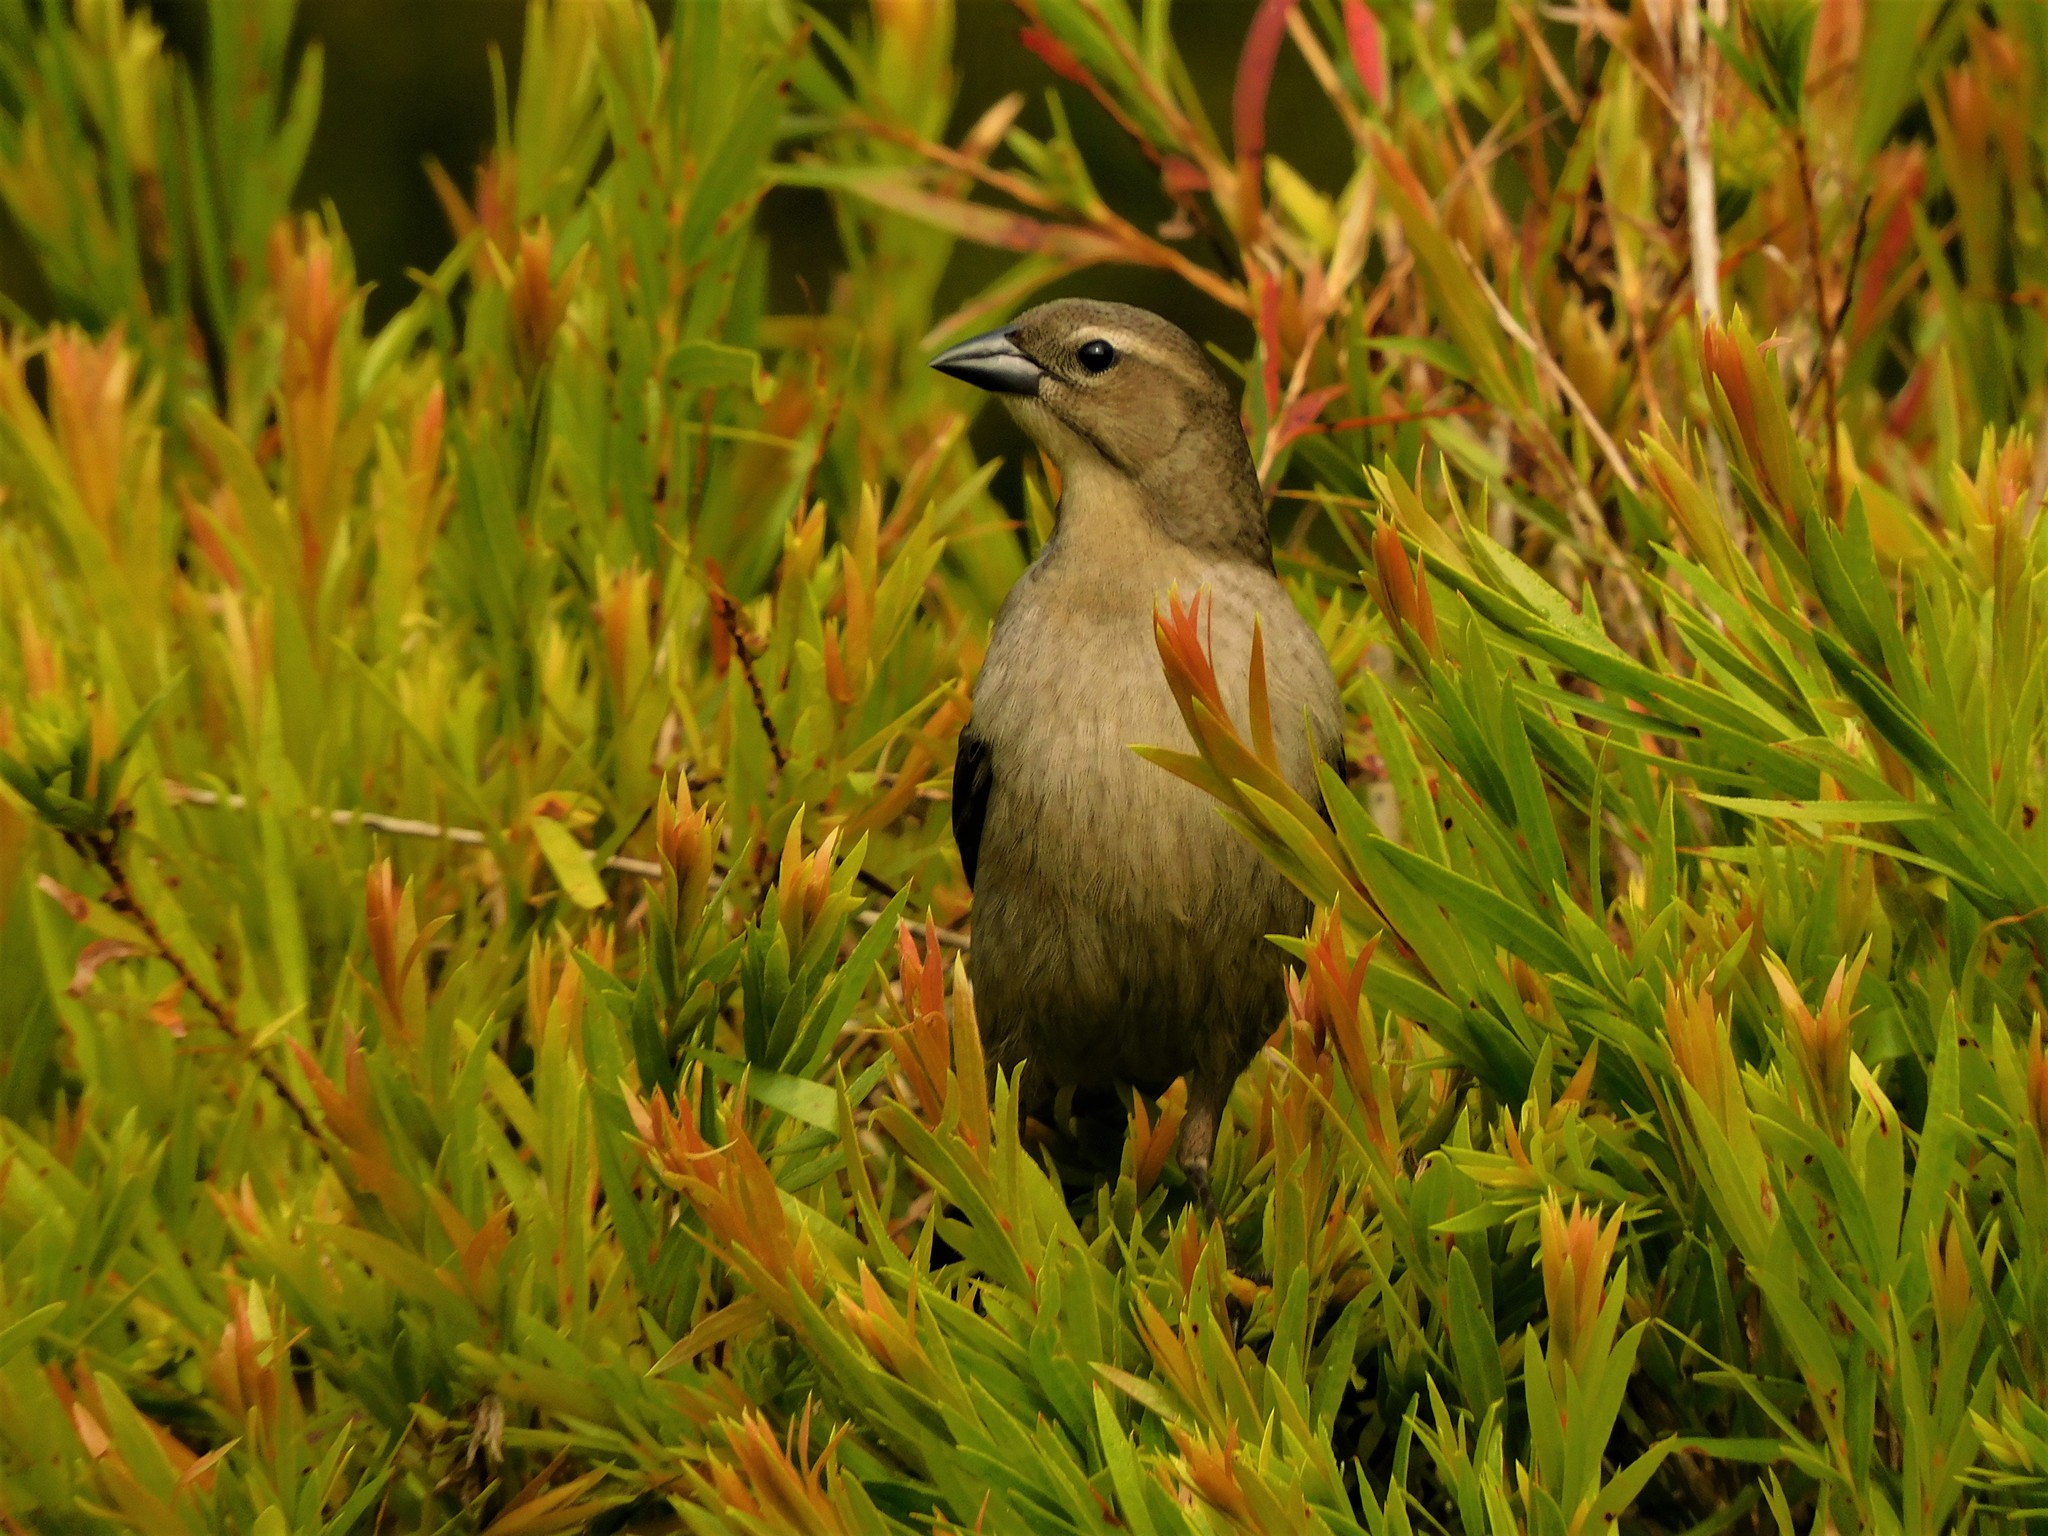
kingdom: Animalia
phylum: Chordata
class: Aves
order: Passeriformes
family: Icteridae
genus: Molothrus
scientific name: Molothrus bonariensis
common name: Shiny cowbird
